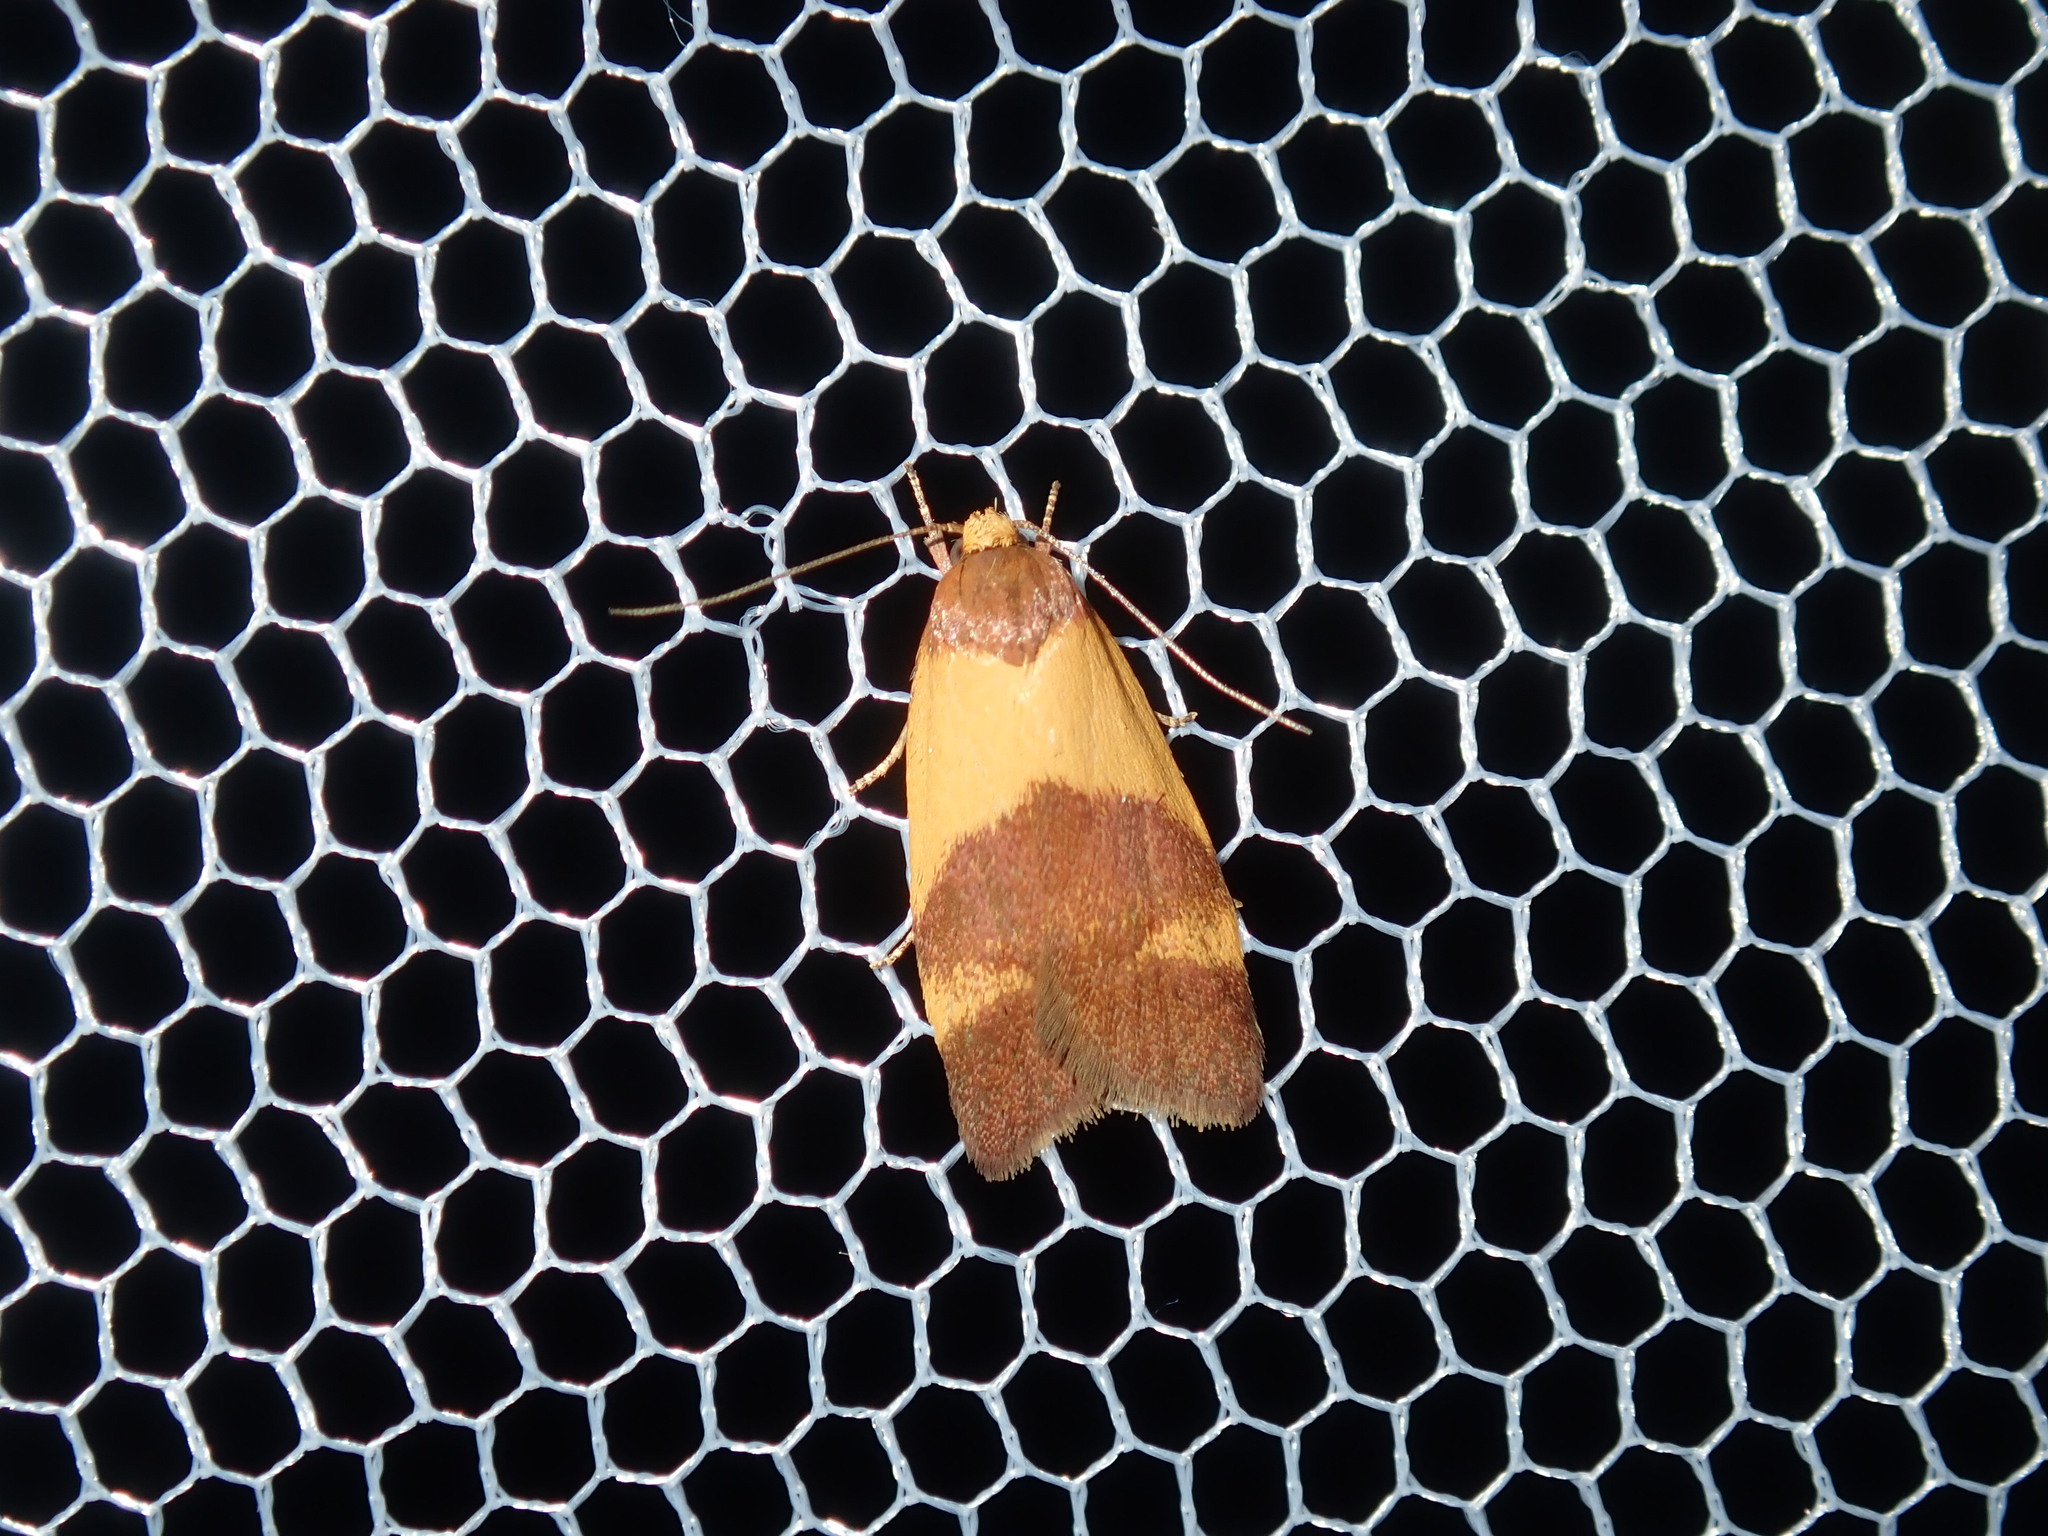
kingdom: Animalia
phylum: Arthropoda
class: Insecta
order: Lepidoptera
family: Oecophoridae
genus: Eochrois
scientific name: Eochrois epidesma
